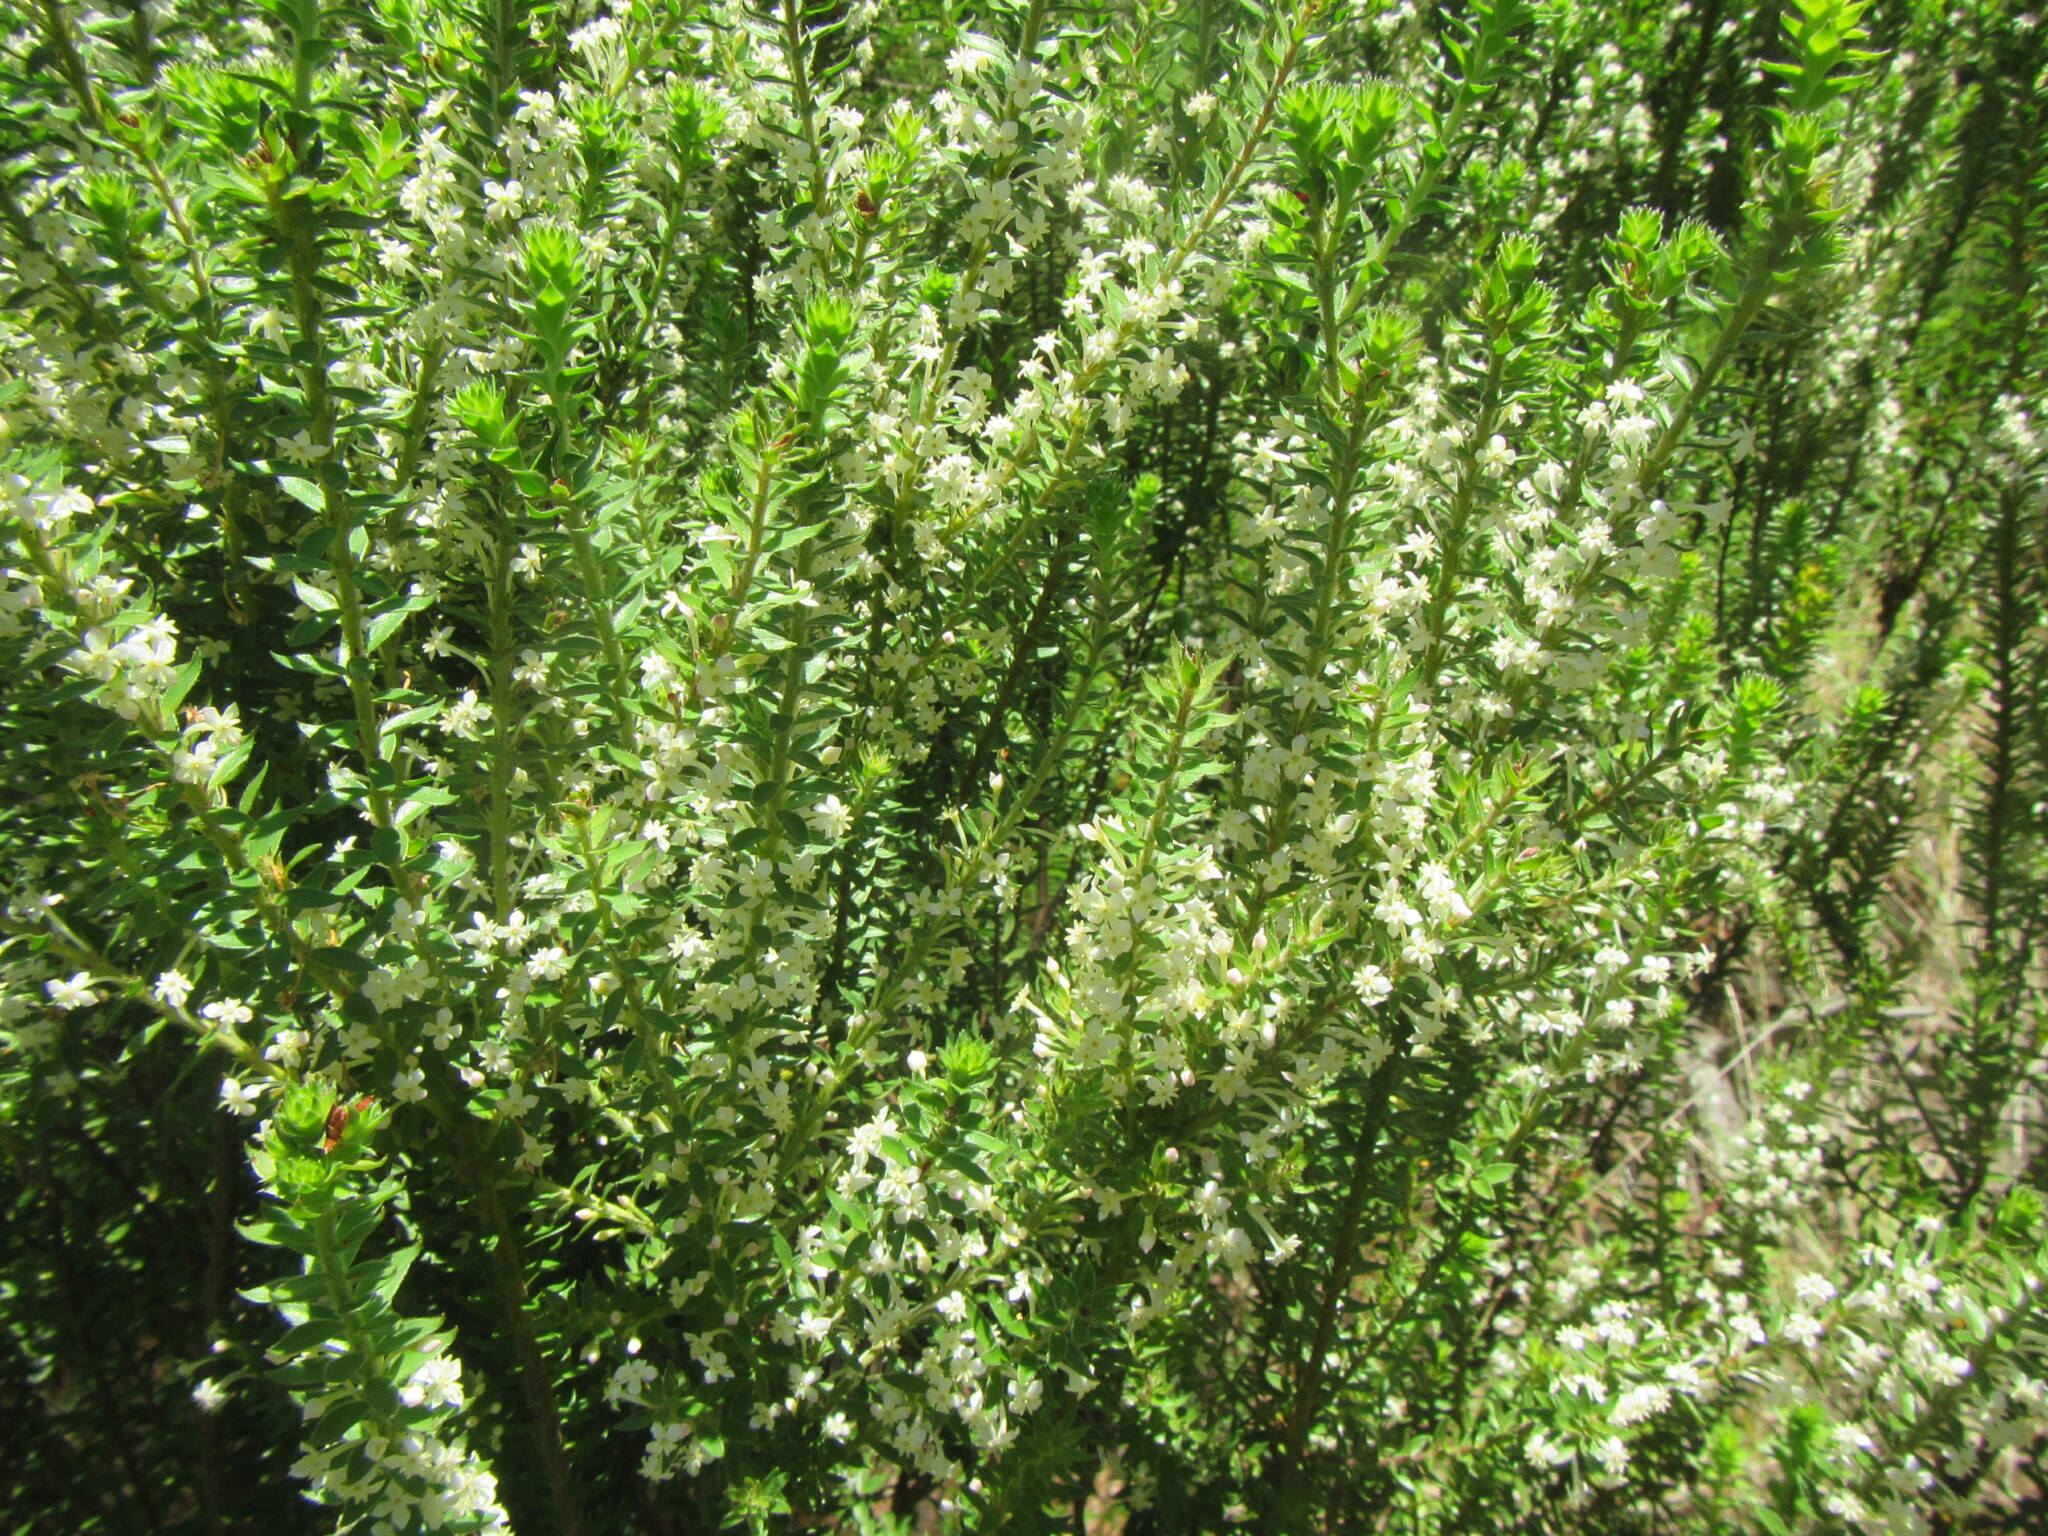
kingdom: Plantae
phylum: Tracheophyta
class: Magnoliopsida
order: Malvales
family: Thymelaeaceae
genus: Struthiola
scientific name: Struthiola hirsuta
